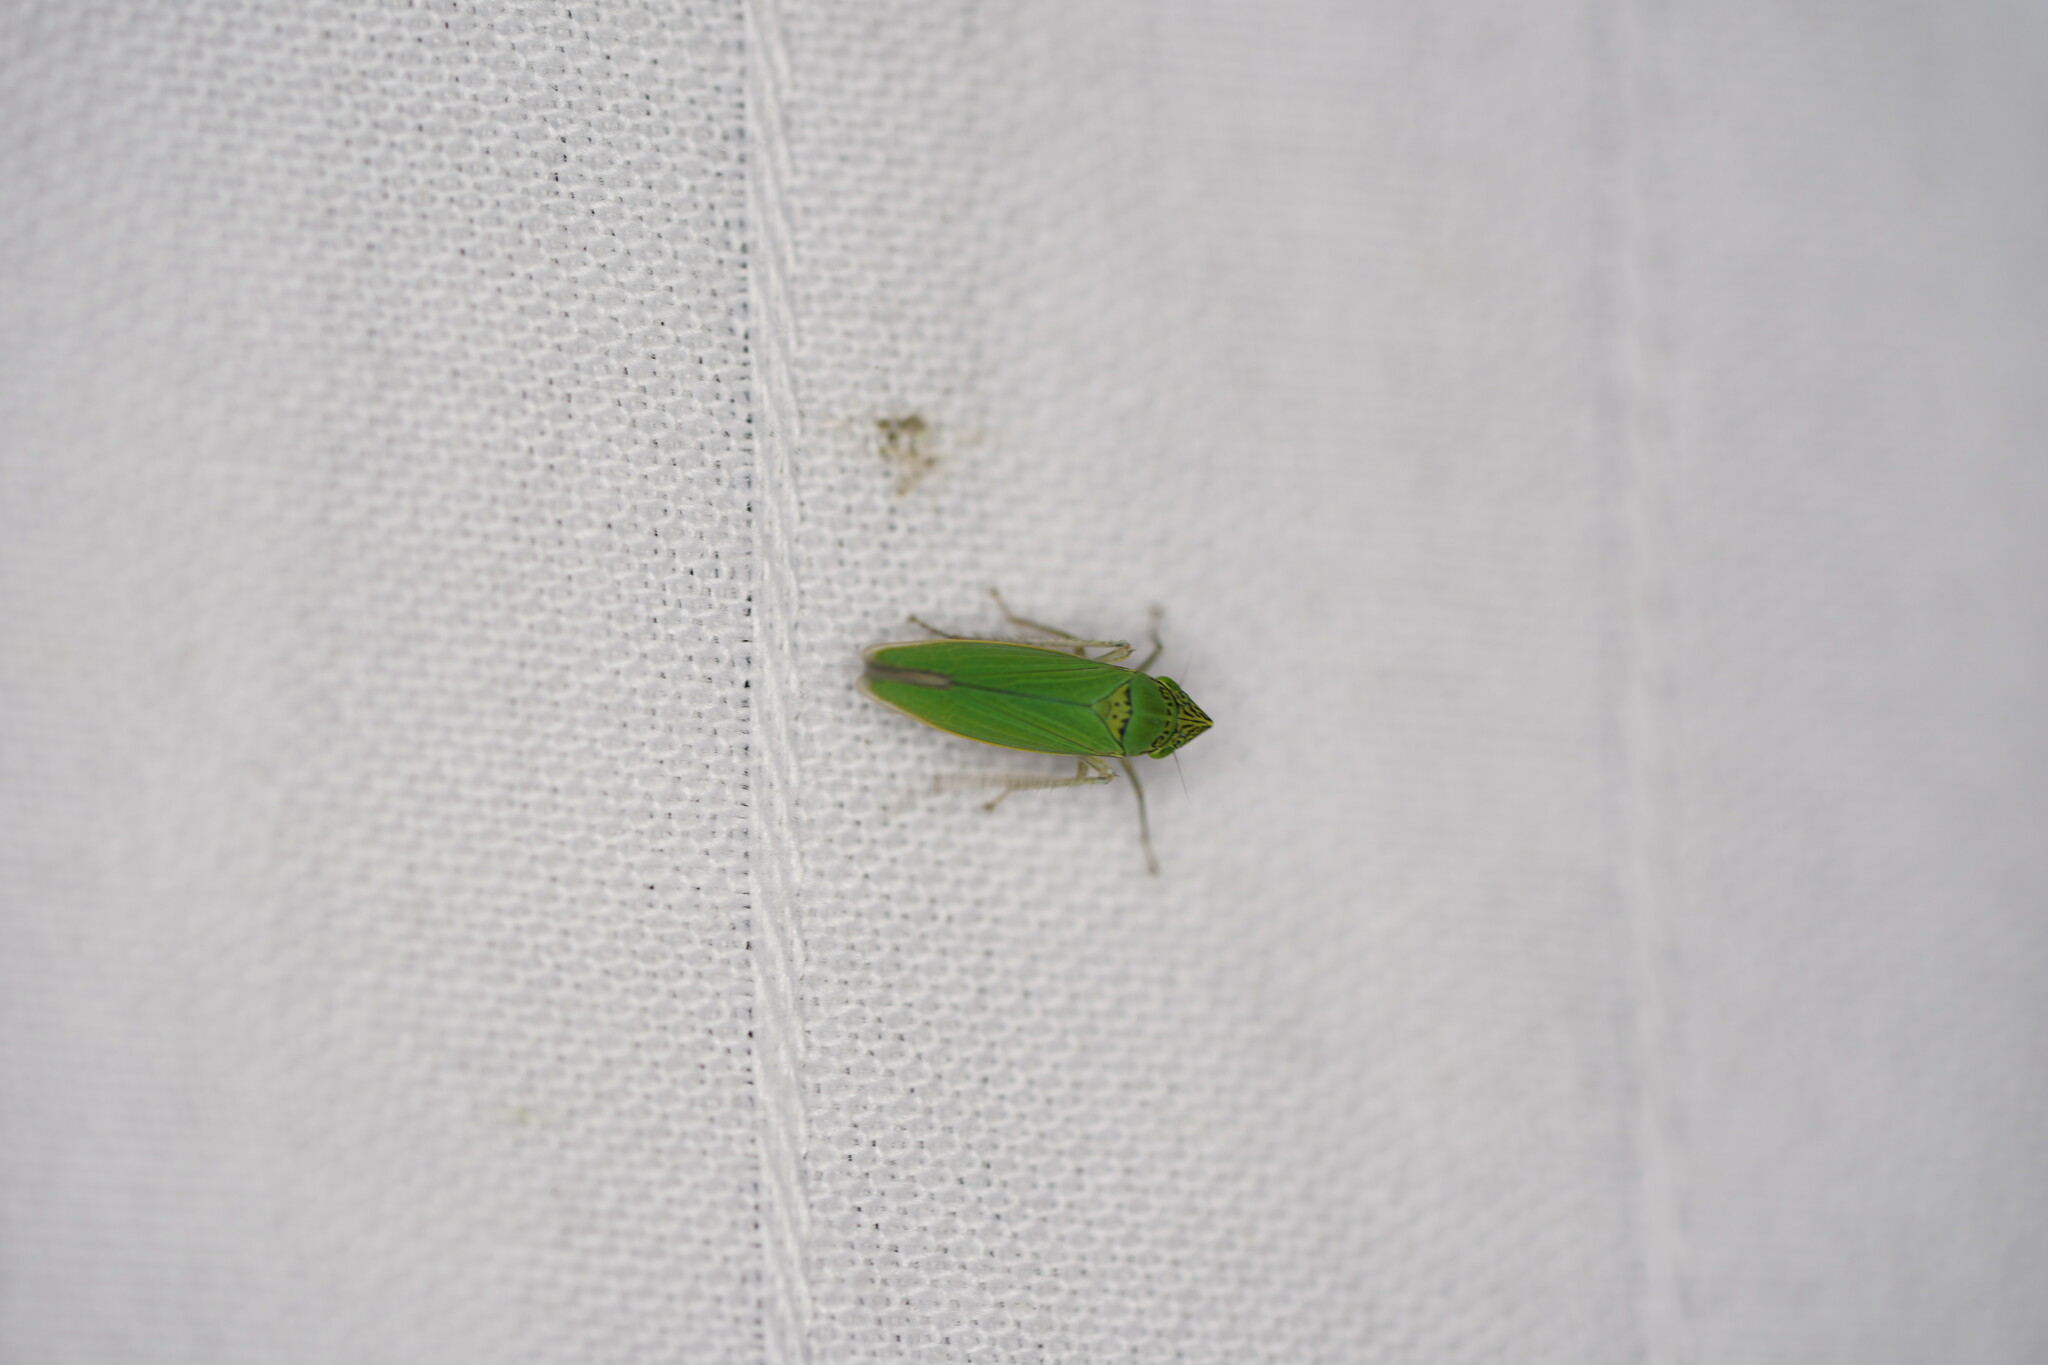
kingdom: Animalia
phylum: Arthropoda
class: Insecta
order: Hemiptera
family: Cicadellidae
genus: Draeculacephala
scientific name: Draeculacephala inscripta
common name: Leafhopper
